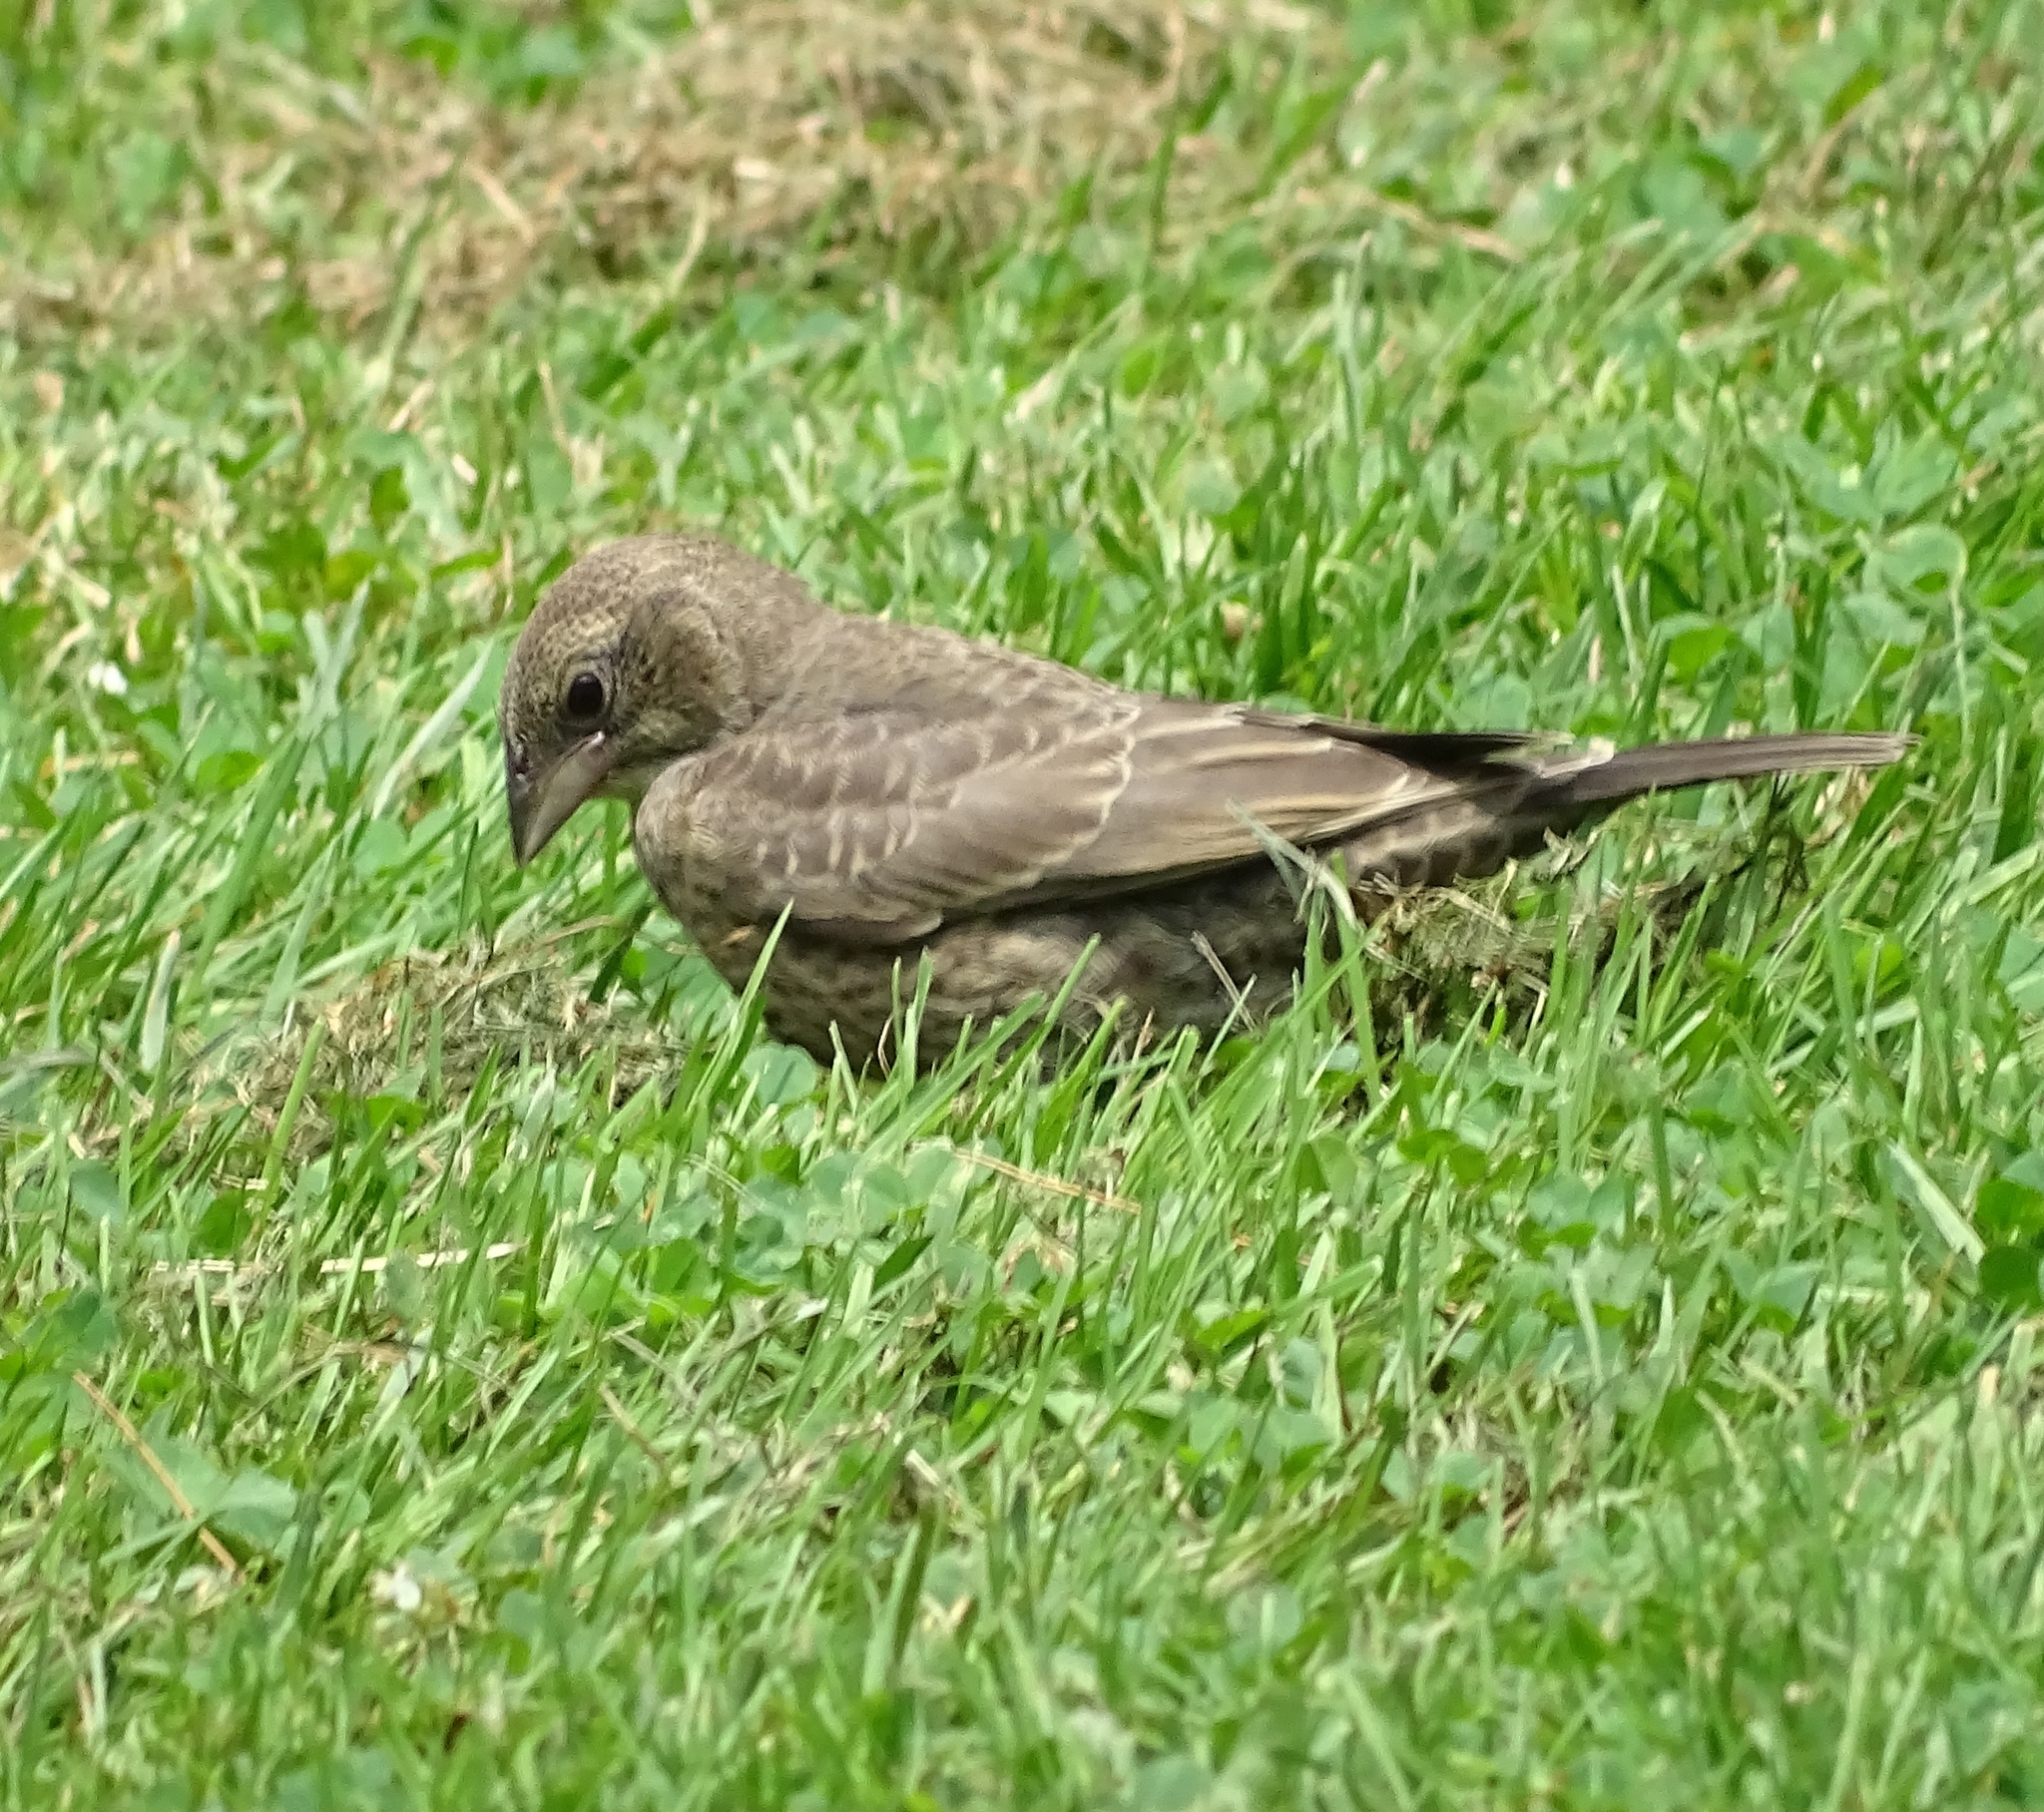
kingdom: Animalia
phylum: Chordata
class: Aves
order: Passeriformes
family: Icteridae
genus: Molothrus
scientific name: Molothrus ater
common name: Brown-headed cowbird
